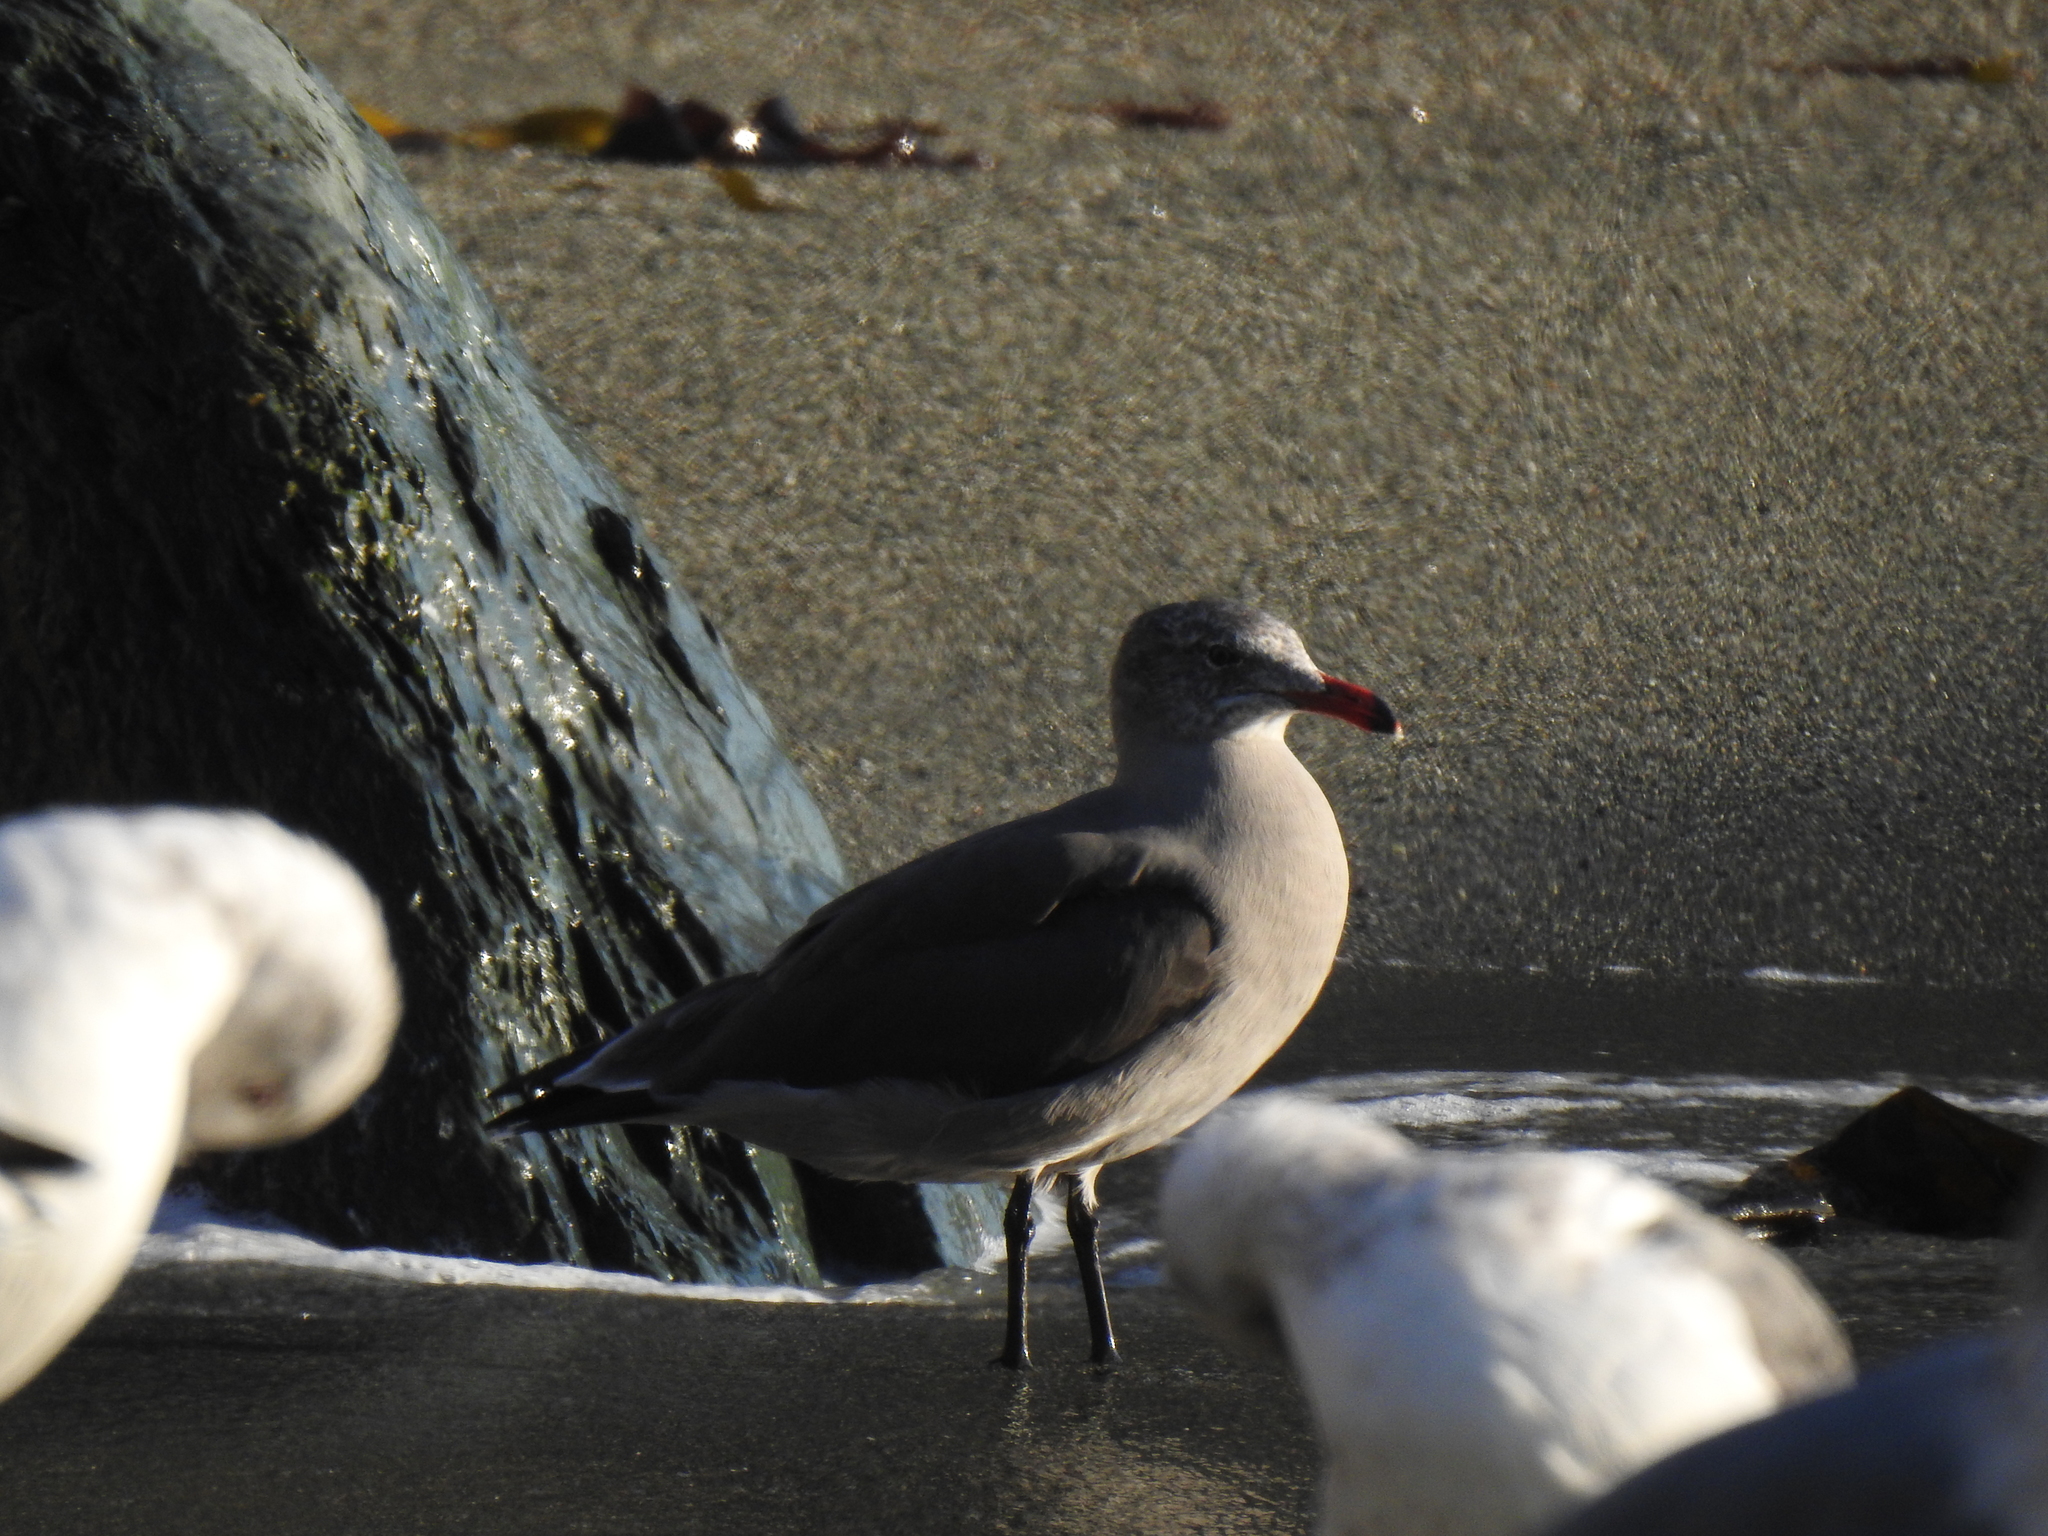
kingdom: Animalia
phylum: Chordata
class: Aves
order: Charadriiformes
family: Laridae
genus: Larus
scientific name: Larus heermanni
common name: Heermann's gull
